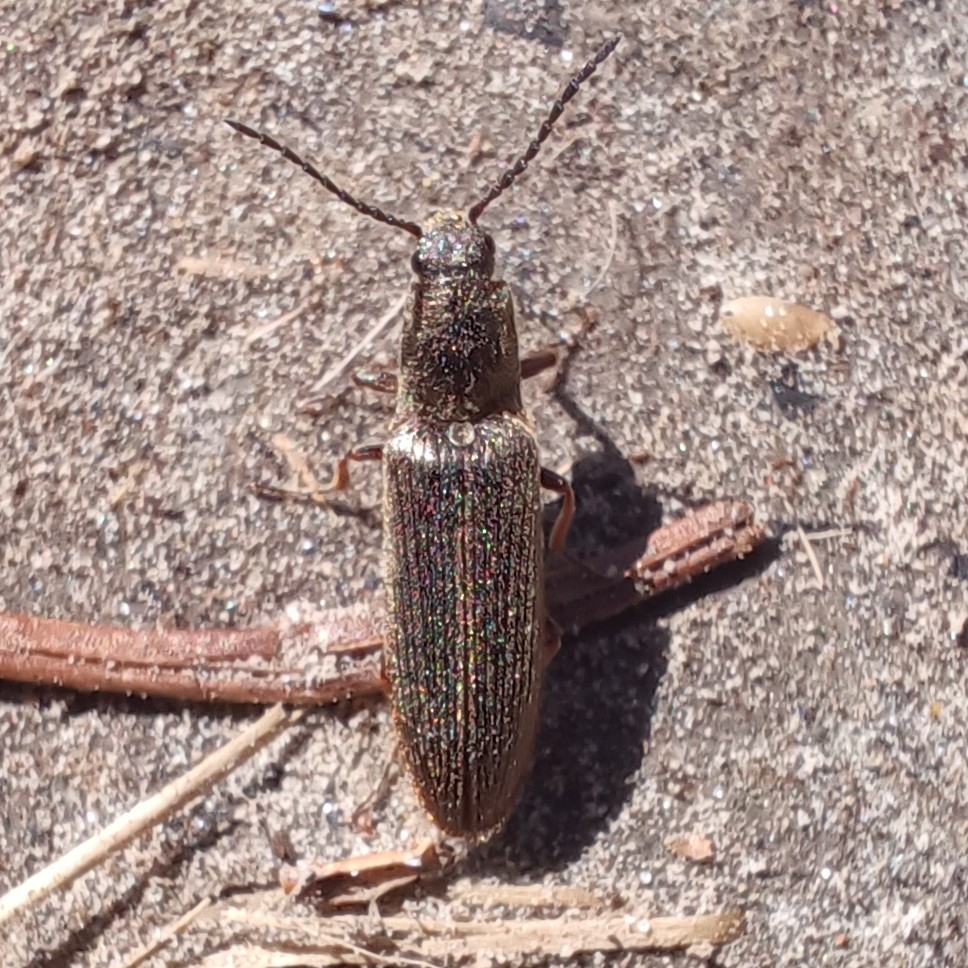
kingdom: Animalia
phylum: Arthropoda
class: Insecta
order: Coleoptera
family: Elateridae
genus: Sylvanelater
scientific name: Sylvanelater cylindriformis
